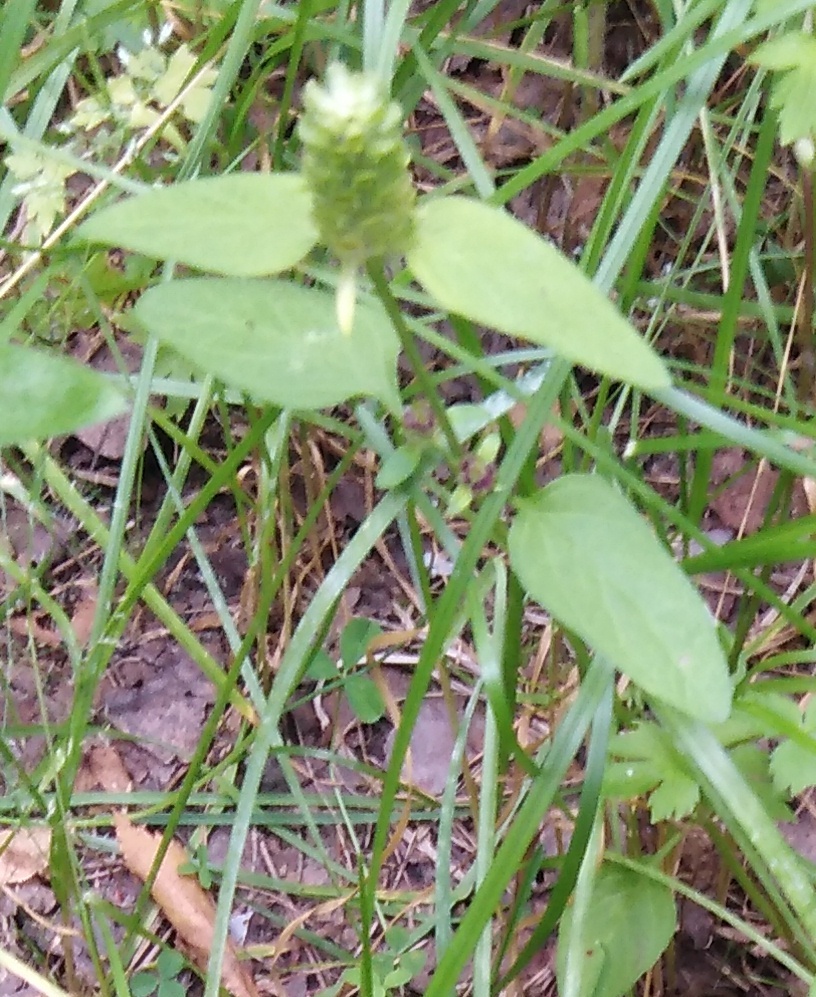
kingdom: Plantae
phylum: Tracheophyta
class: Magnoliopsida
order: Lamiales
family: Lamiaceae
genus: Prunella
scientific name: Prunella vulgaris
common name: Heal-all
